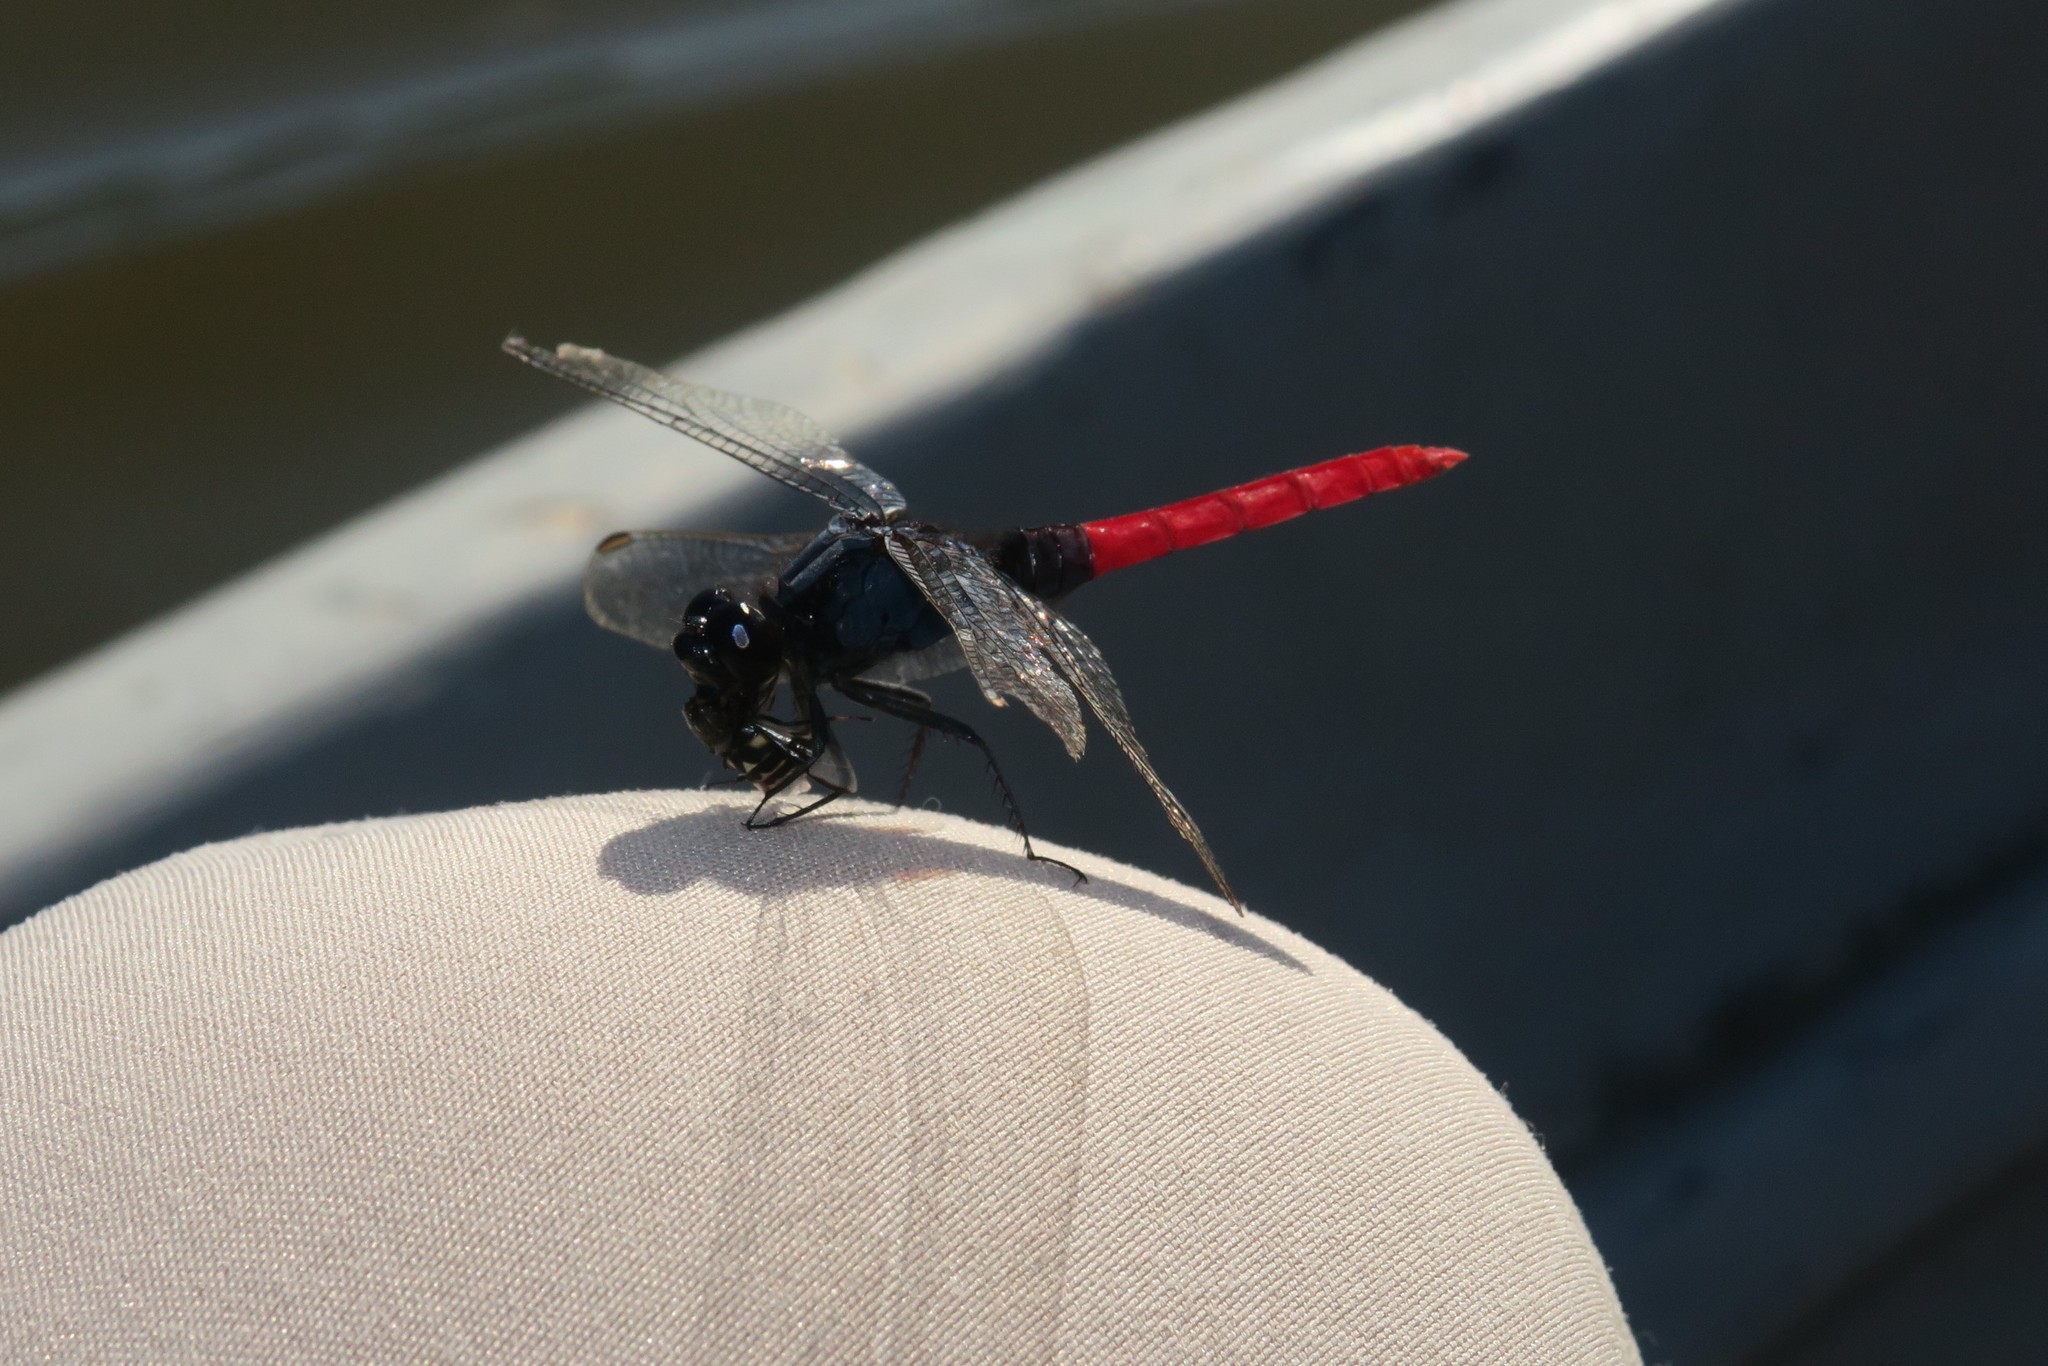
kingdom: Animalia
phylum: Arthropoda
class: Insecta
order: Odonata
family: Libellulidae
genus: Erythemis
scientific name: Erythemis peruviana
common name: Flame-tailed pondhawk
